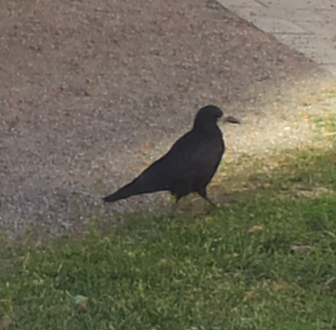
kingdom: Animalia
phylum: Chordata
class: Aves
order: Passeriformes
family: Corvidae
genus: Corvus
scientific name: Corvus frugilegus
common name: Rook
